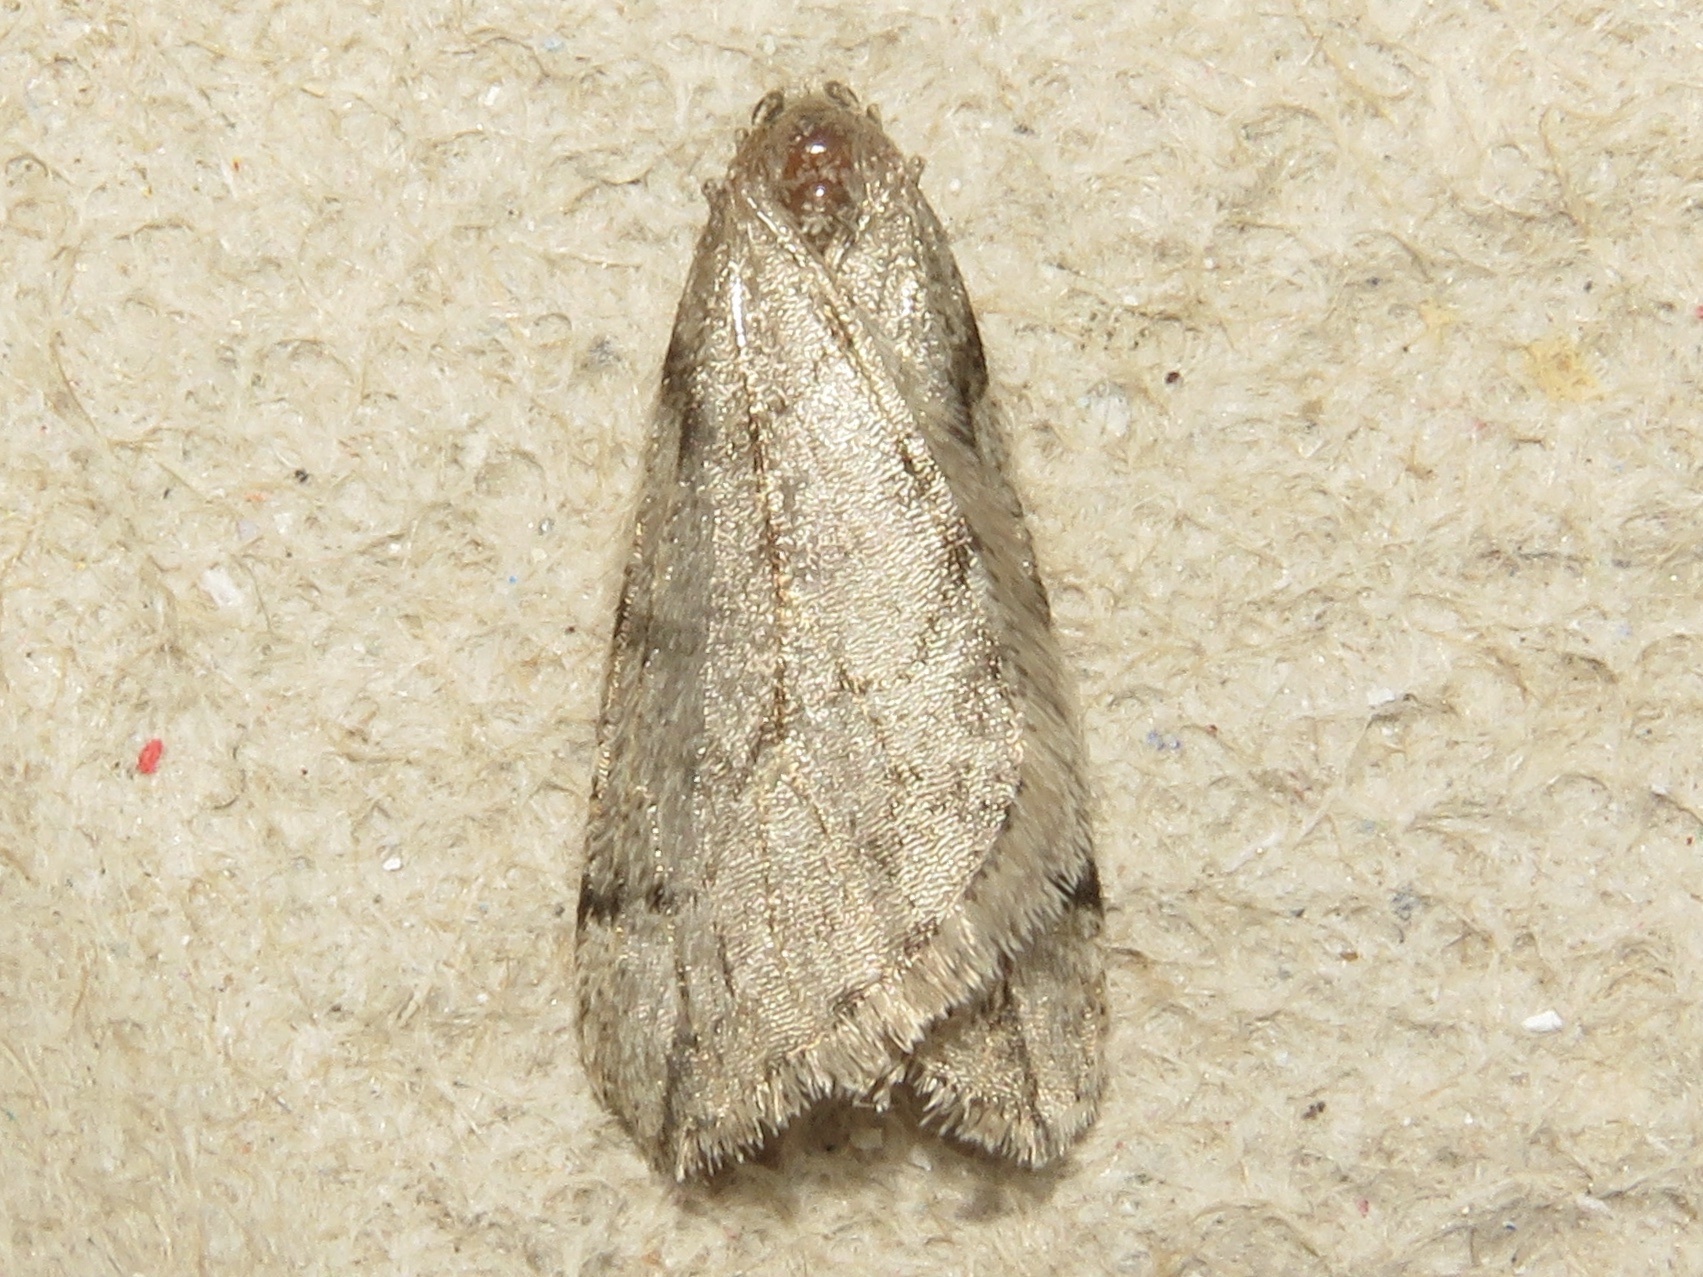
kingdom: Animalia
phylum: Arthropoda
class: Insecta
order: Lepidoptera
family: Geometridae
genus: Paleacrita
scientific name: Paleacrita vernata
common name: Spring cankerworm
